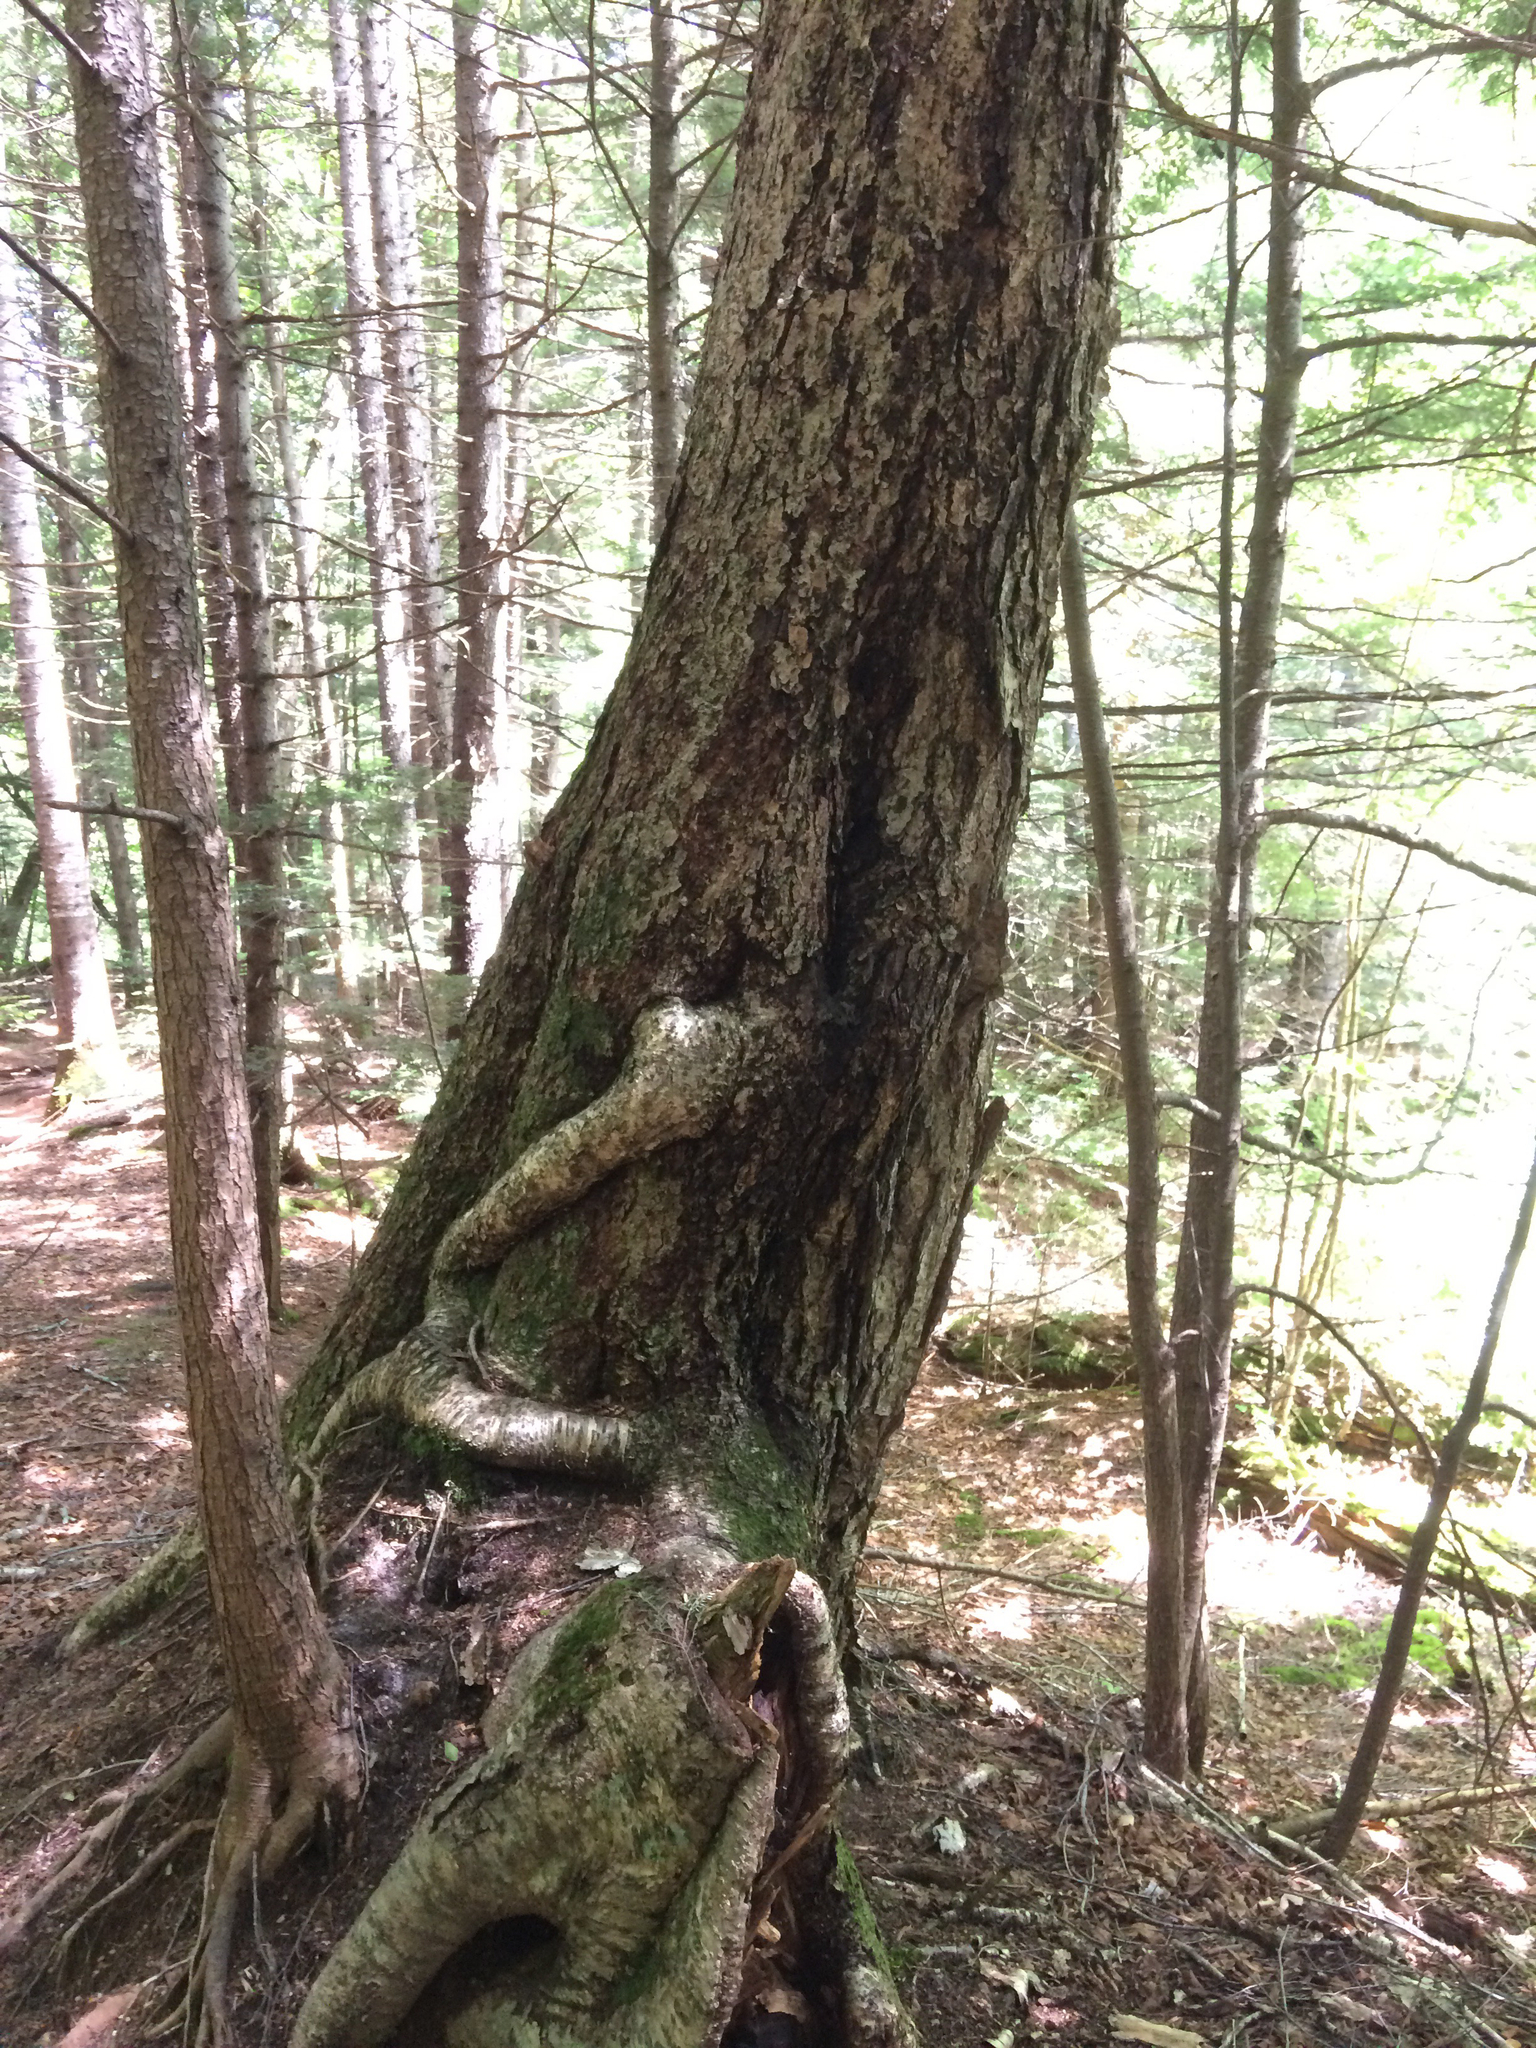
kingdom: Plantae
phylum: Tracheophyta
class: Magnoliopsida
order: Fagales
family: Betulaceae
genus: Betula
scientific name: Betula alleghaniensis
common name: Yellow birch
